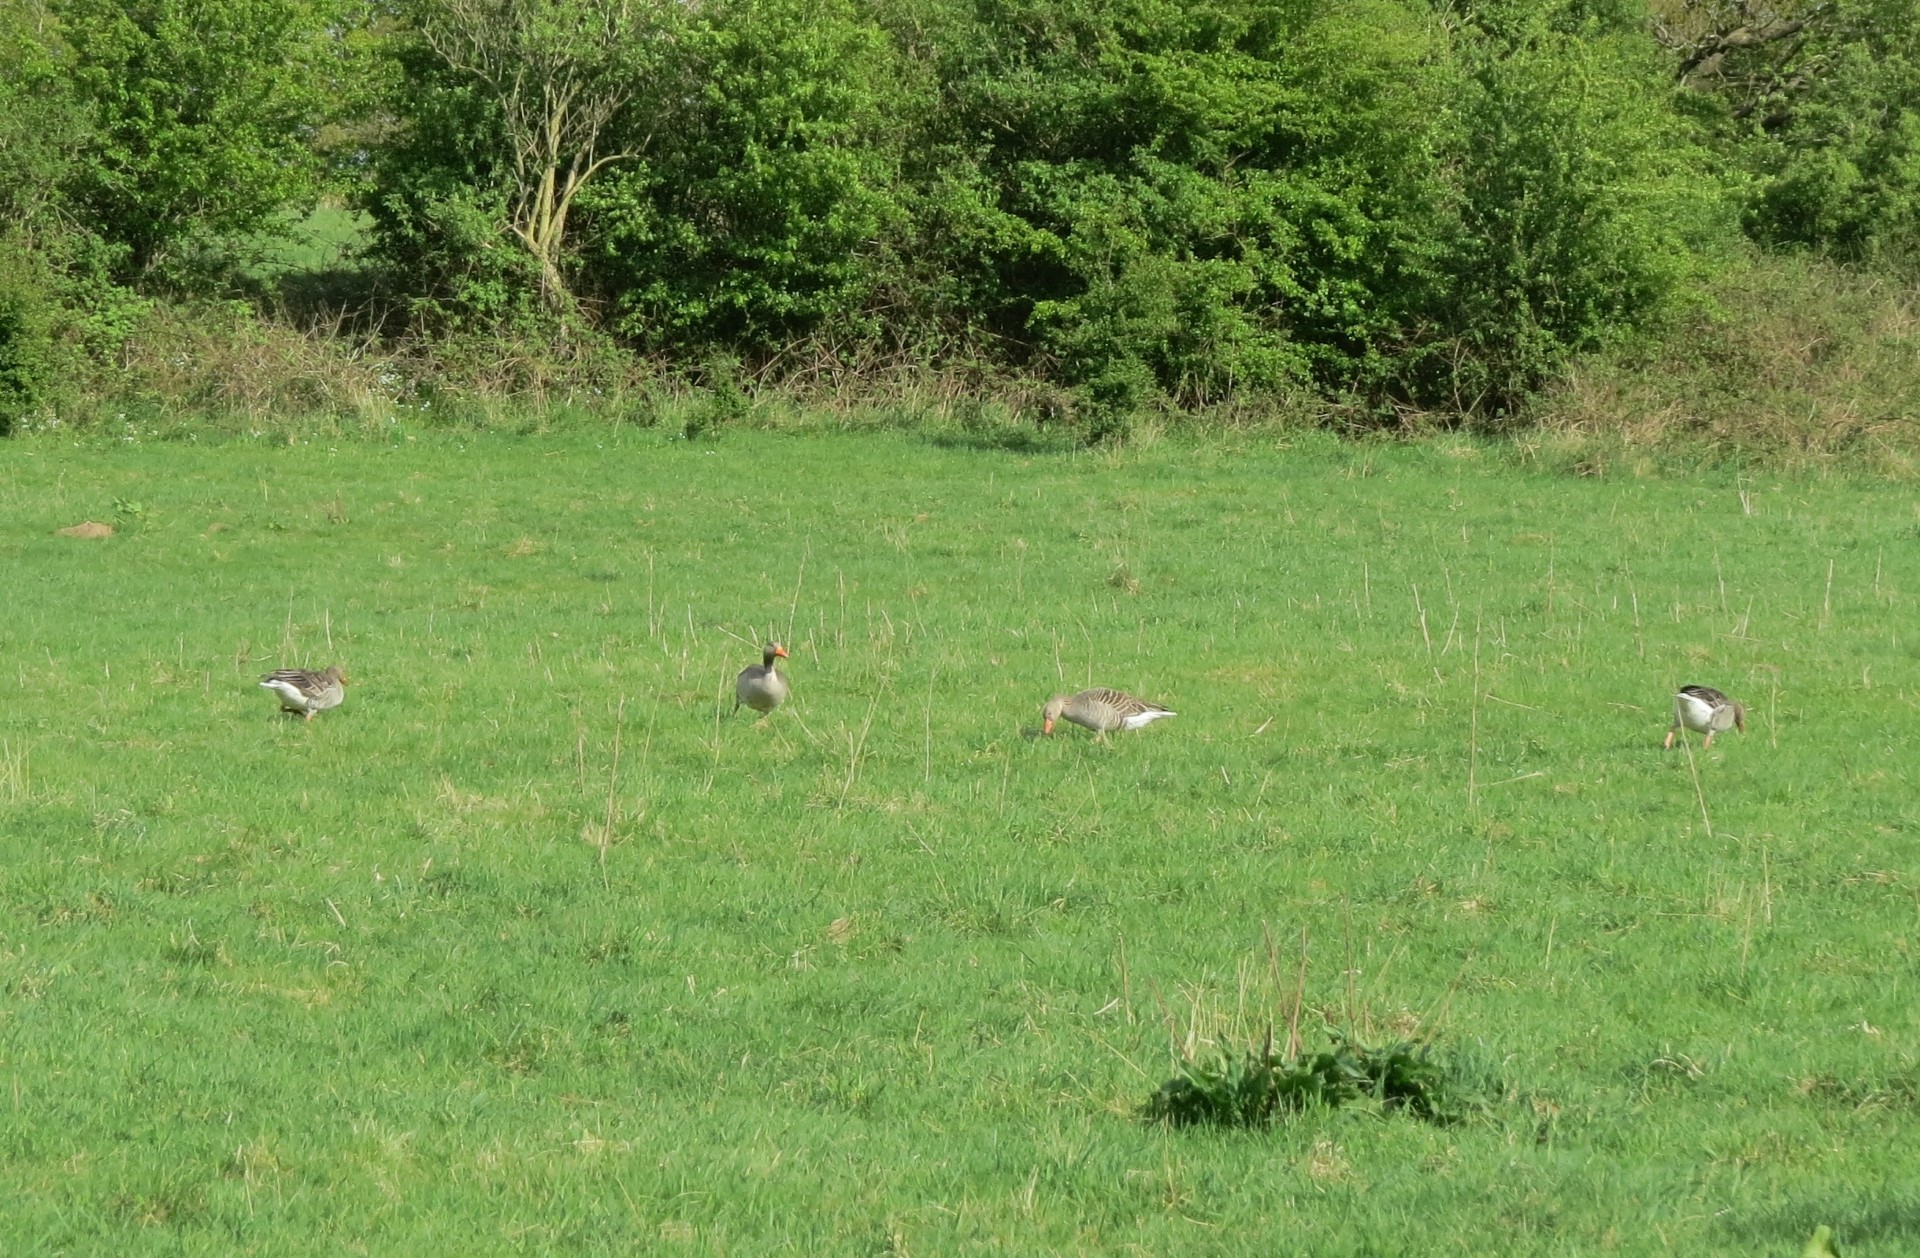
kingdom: Animalia
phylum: Chordata
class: Aves
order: Anseriformes
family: Anatidae
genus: Anser
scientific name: Anser anser
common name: Greylag goose
